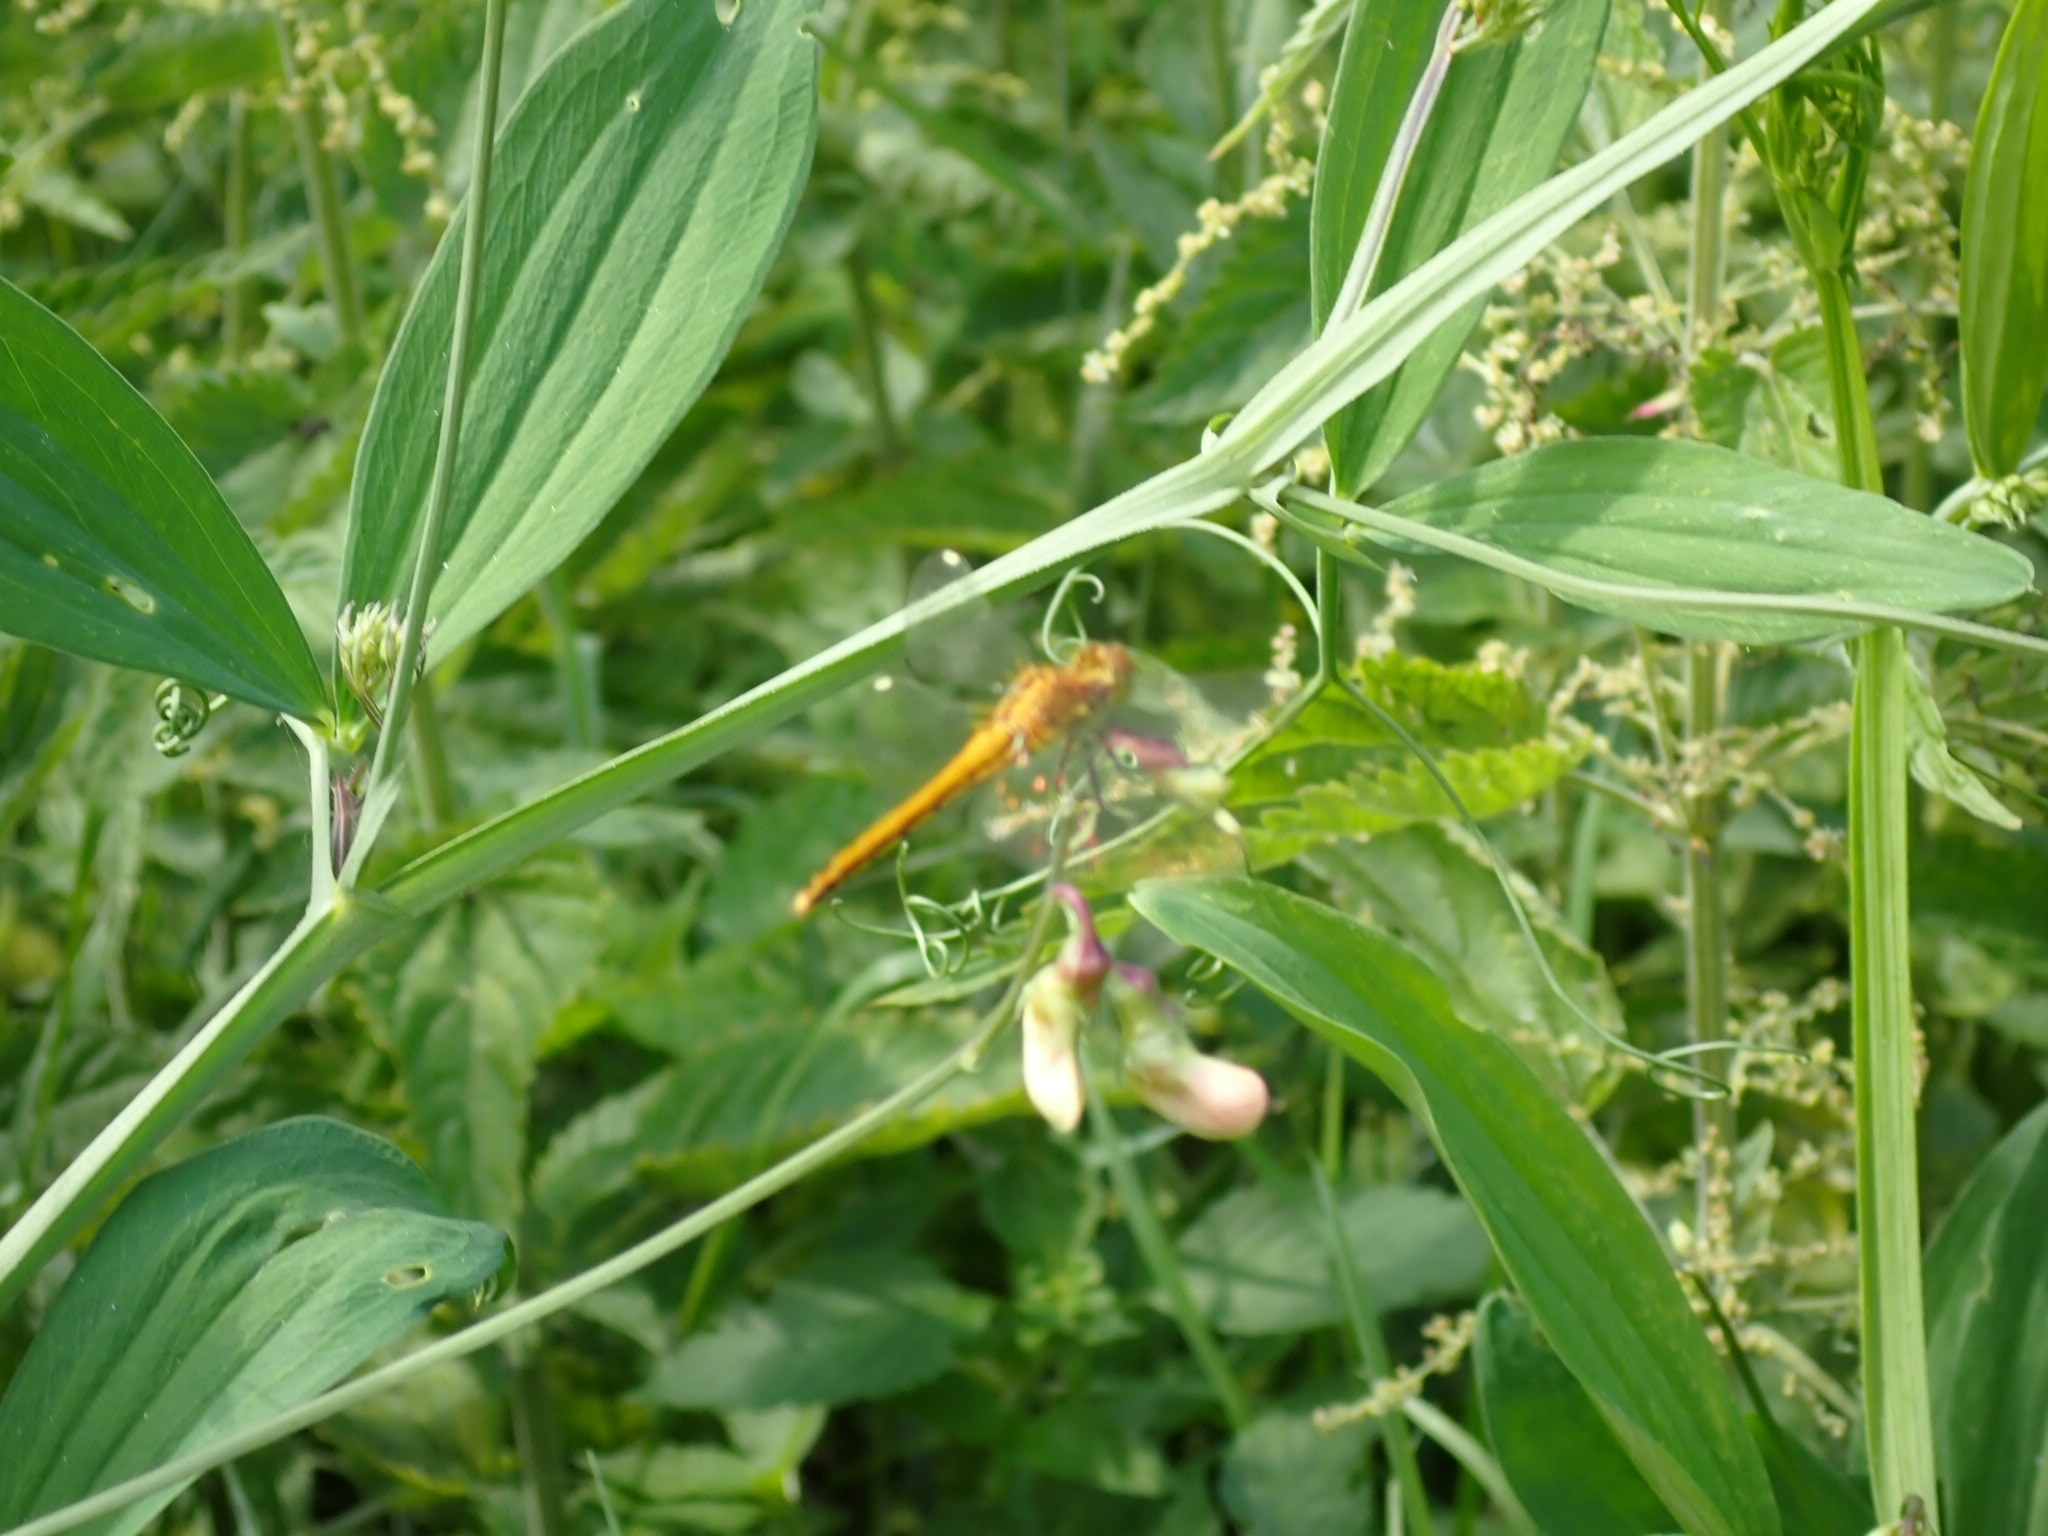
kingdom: Animalia
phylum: Arthropoda
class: Insecta
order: Odonata
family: Libellulidae
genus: Sympetrum
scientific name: Sympetrum flaveolum
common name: Yellow-winged darter
